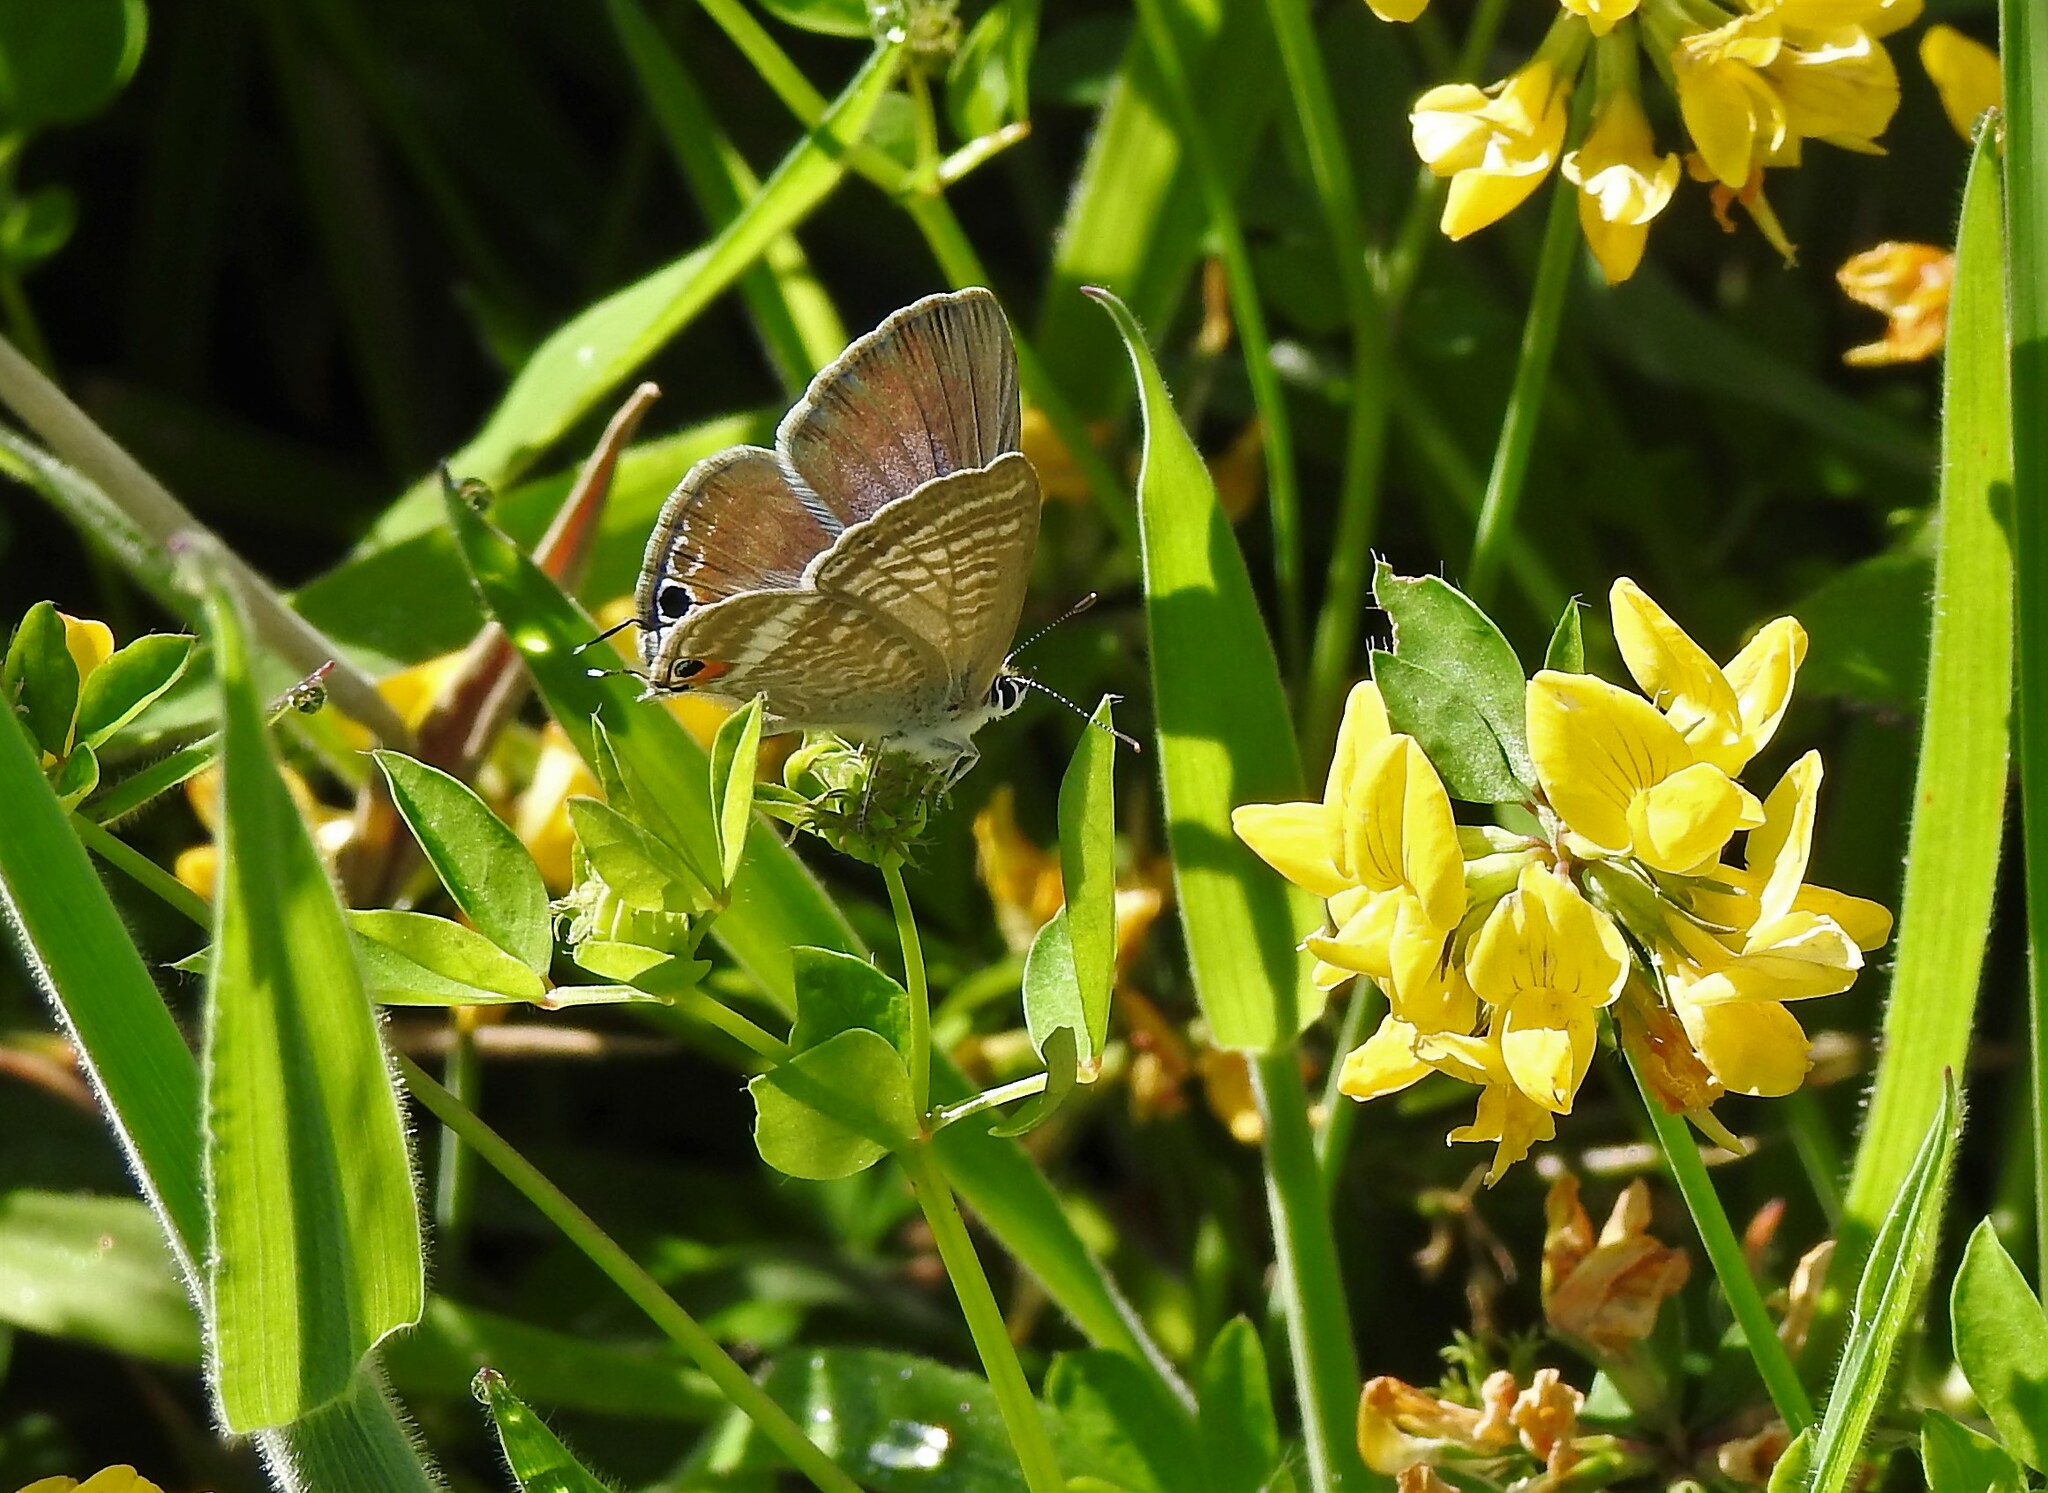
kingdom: Animalia
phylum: Arthropoda
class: Insecta
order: Lepidoptera
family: Lycaenidae
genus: Lampides
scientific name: Lampides boeticus
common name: Long-tailed blue
